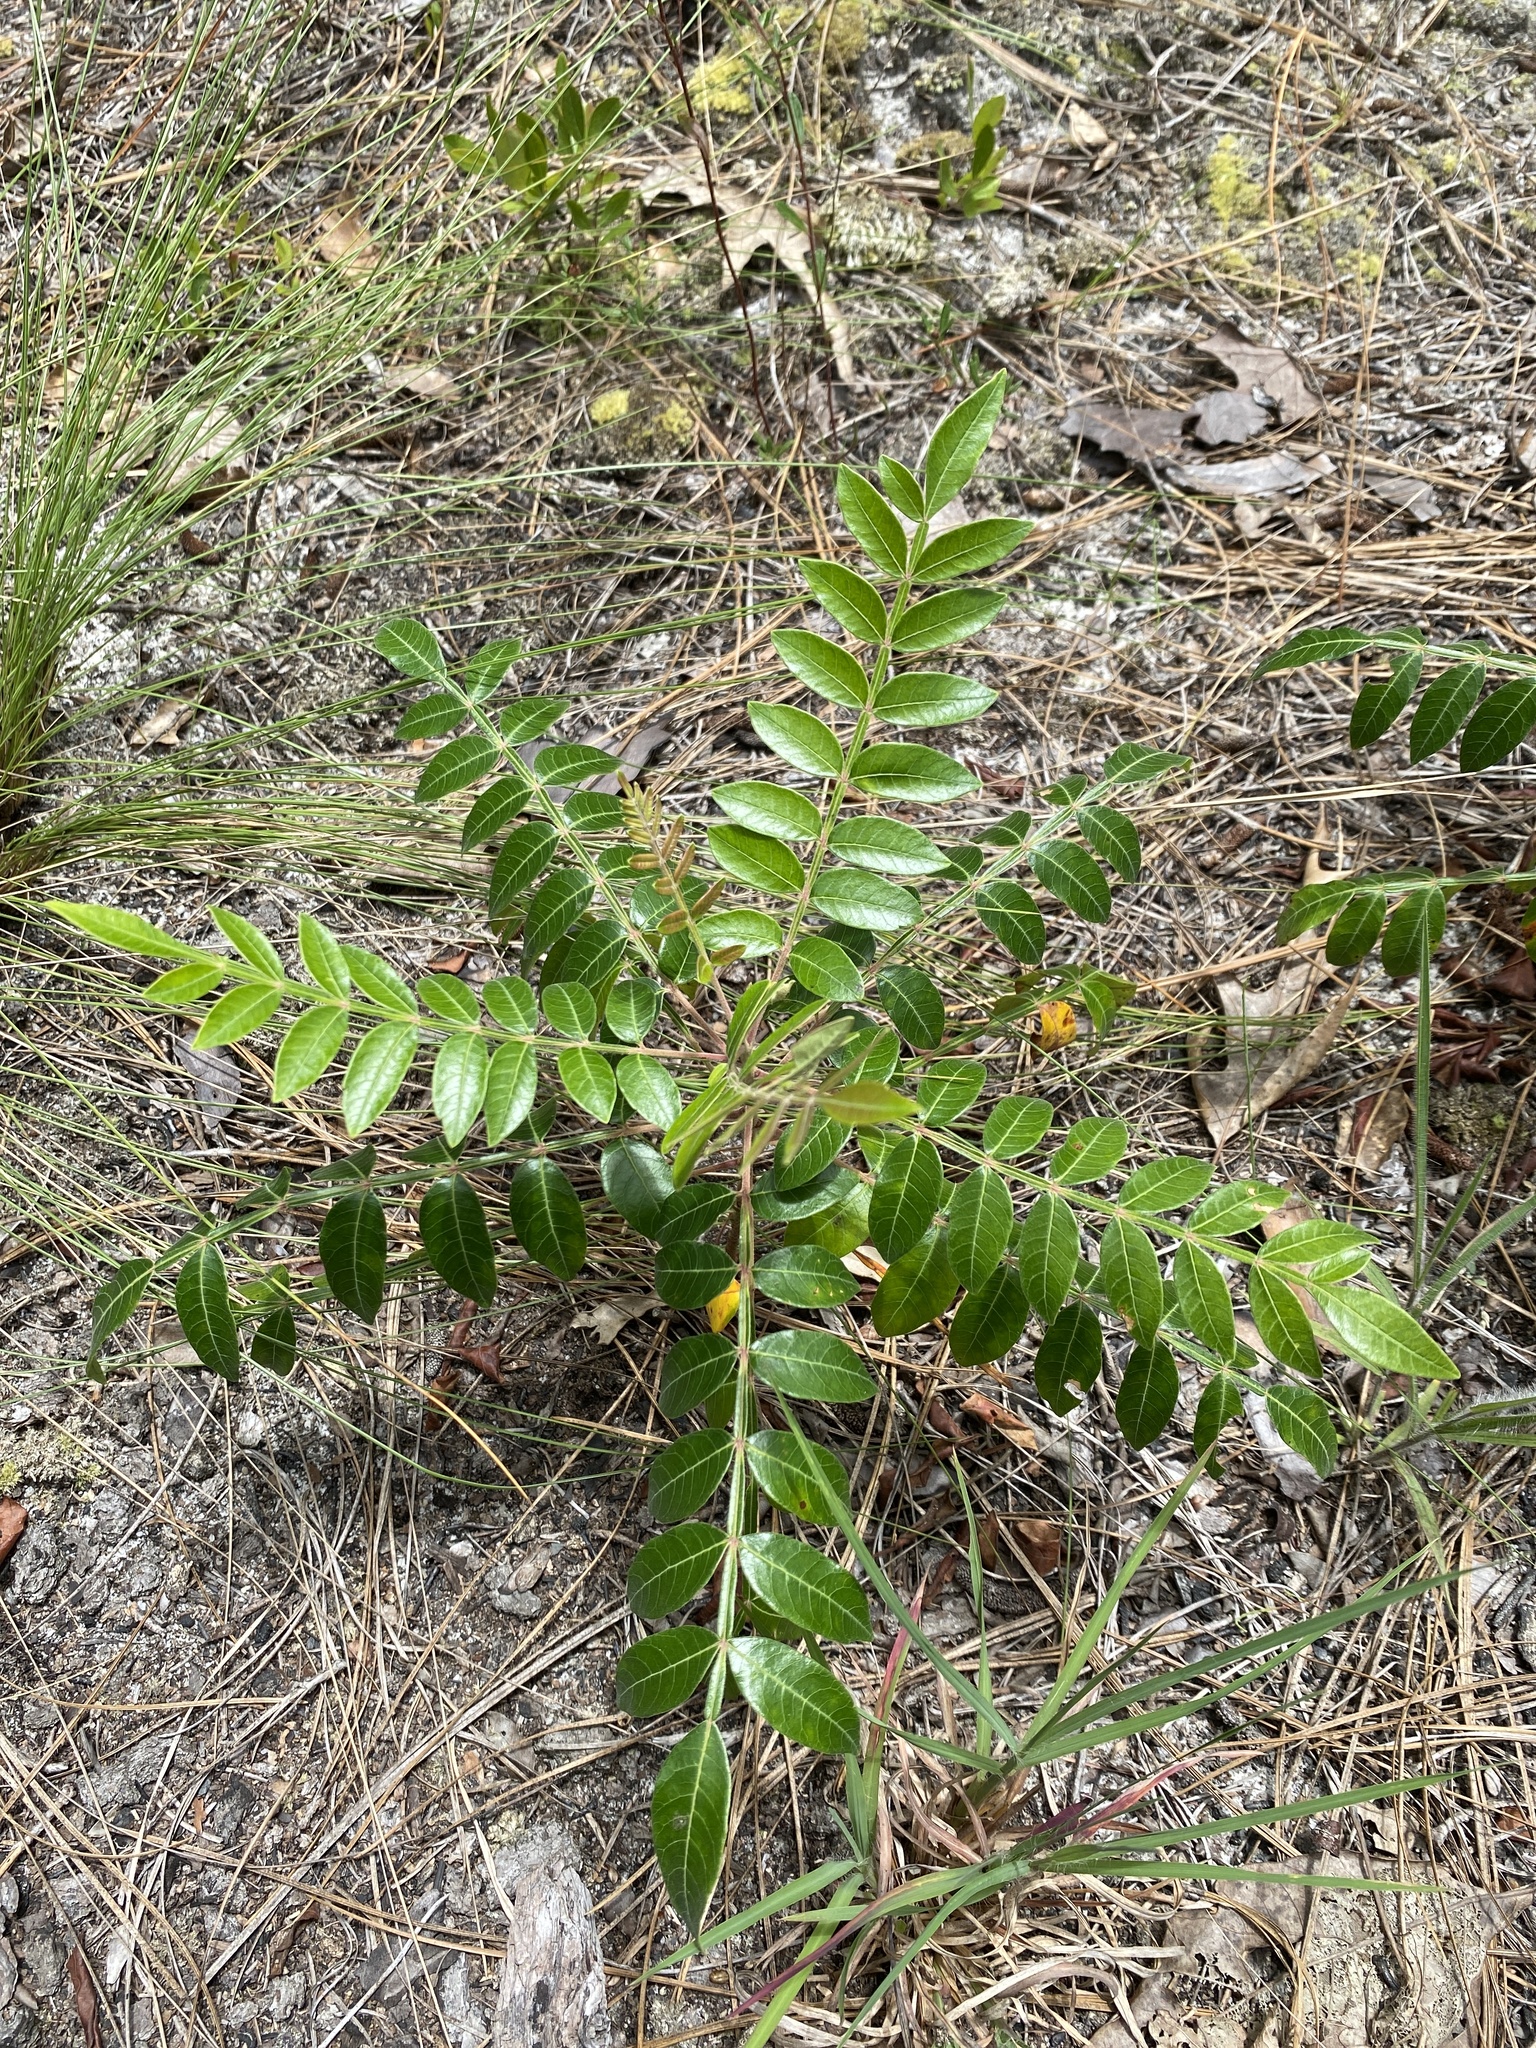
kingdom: Plantae
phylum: Tracheophyta
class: Magnoliopsida
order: Sapindales
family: Anacardiaceae
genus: Rhus
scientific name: Rhus copallina
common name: Shining sumac
